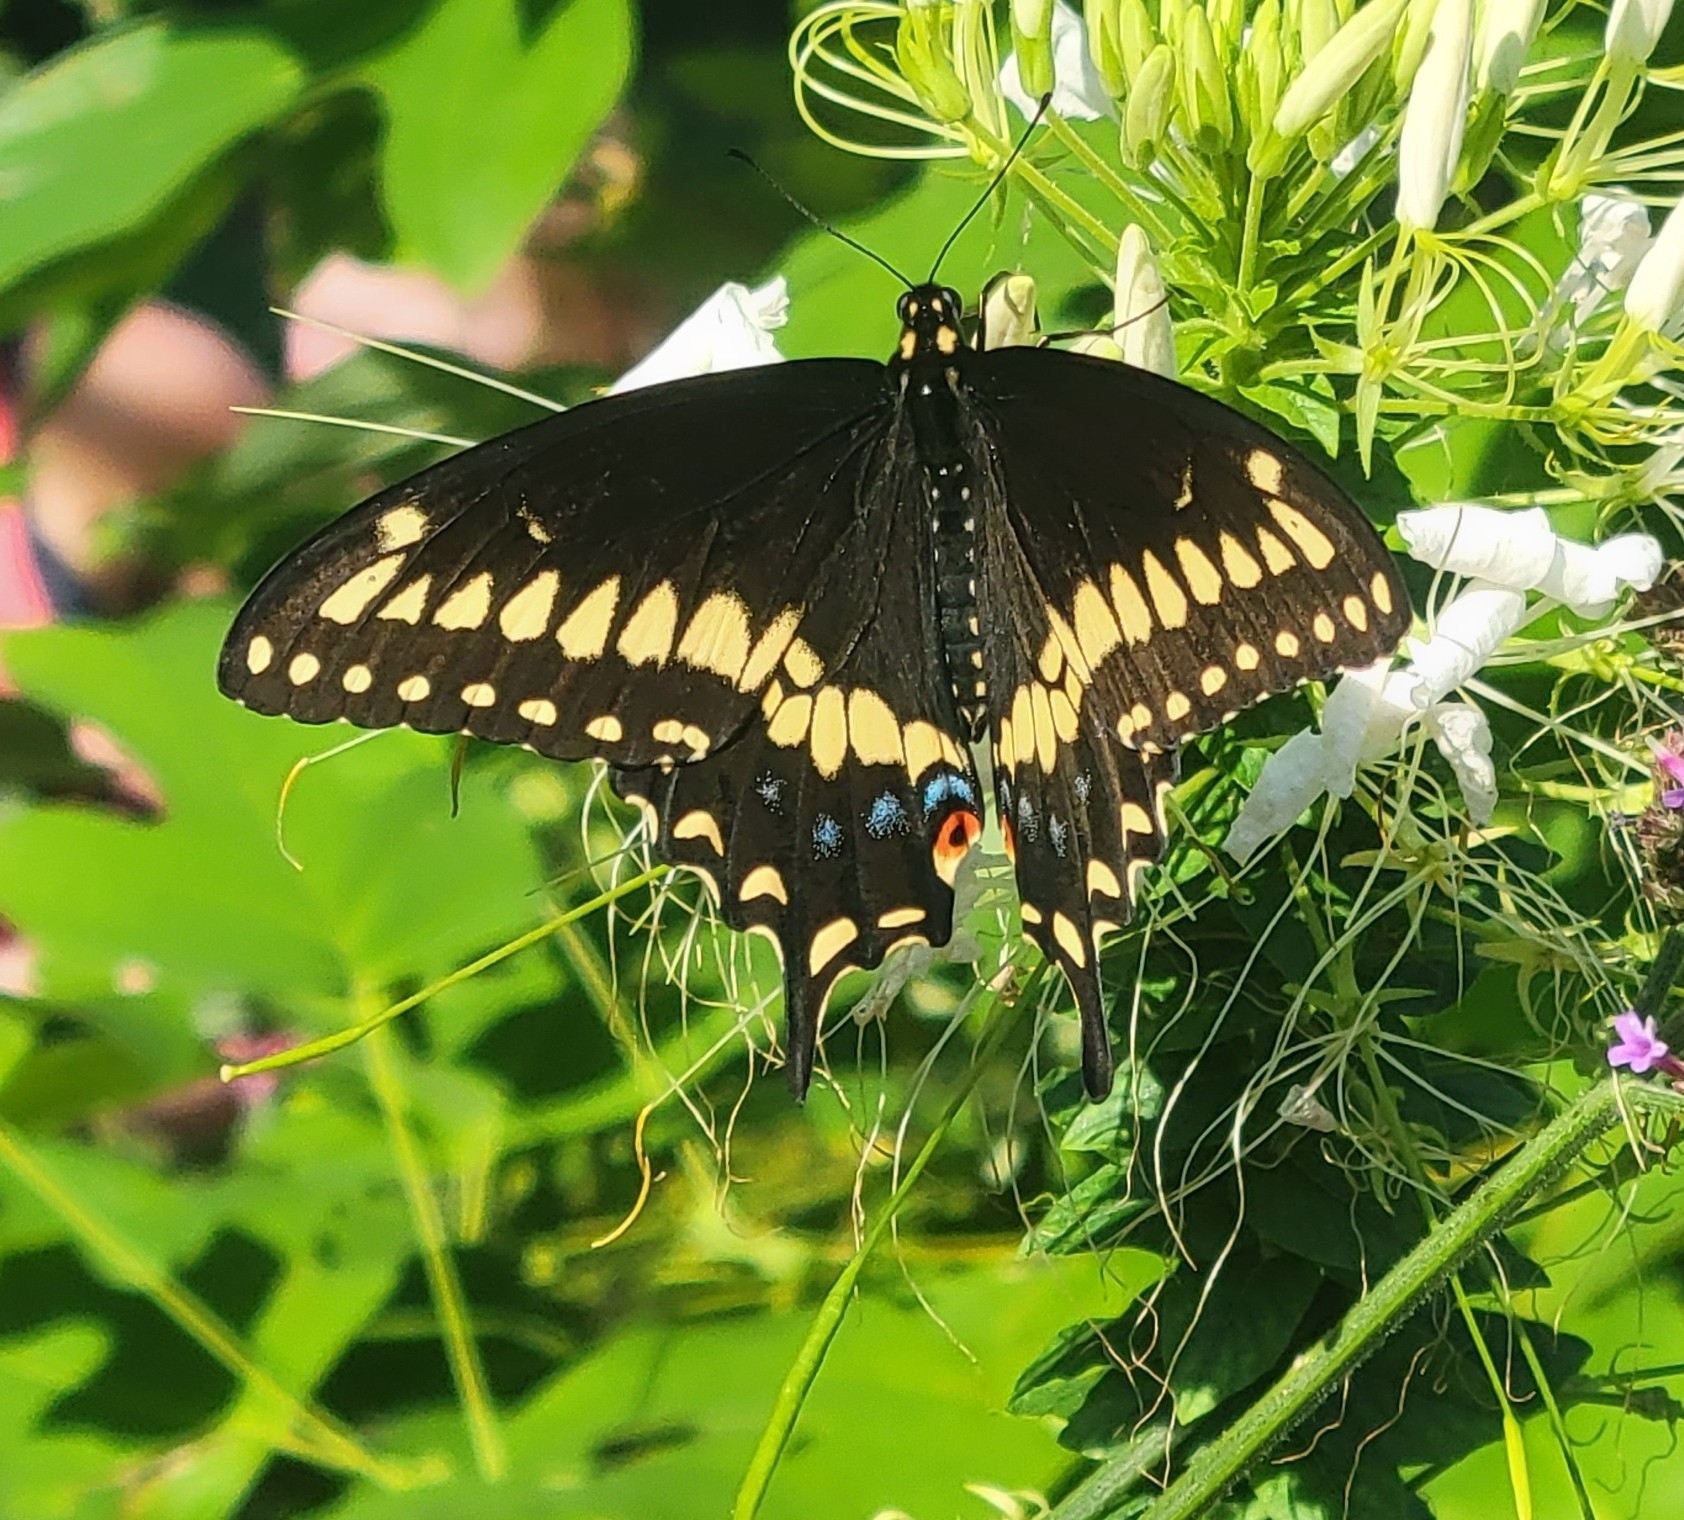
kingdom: Animalia
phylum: Arthropoda
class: Insecta
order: Lepidoptera
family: Papilionidae
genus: Papilio
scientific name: Papilio polyxenes
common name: Black swallowtail
